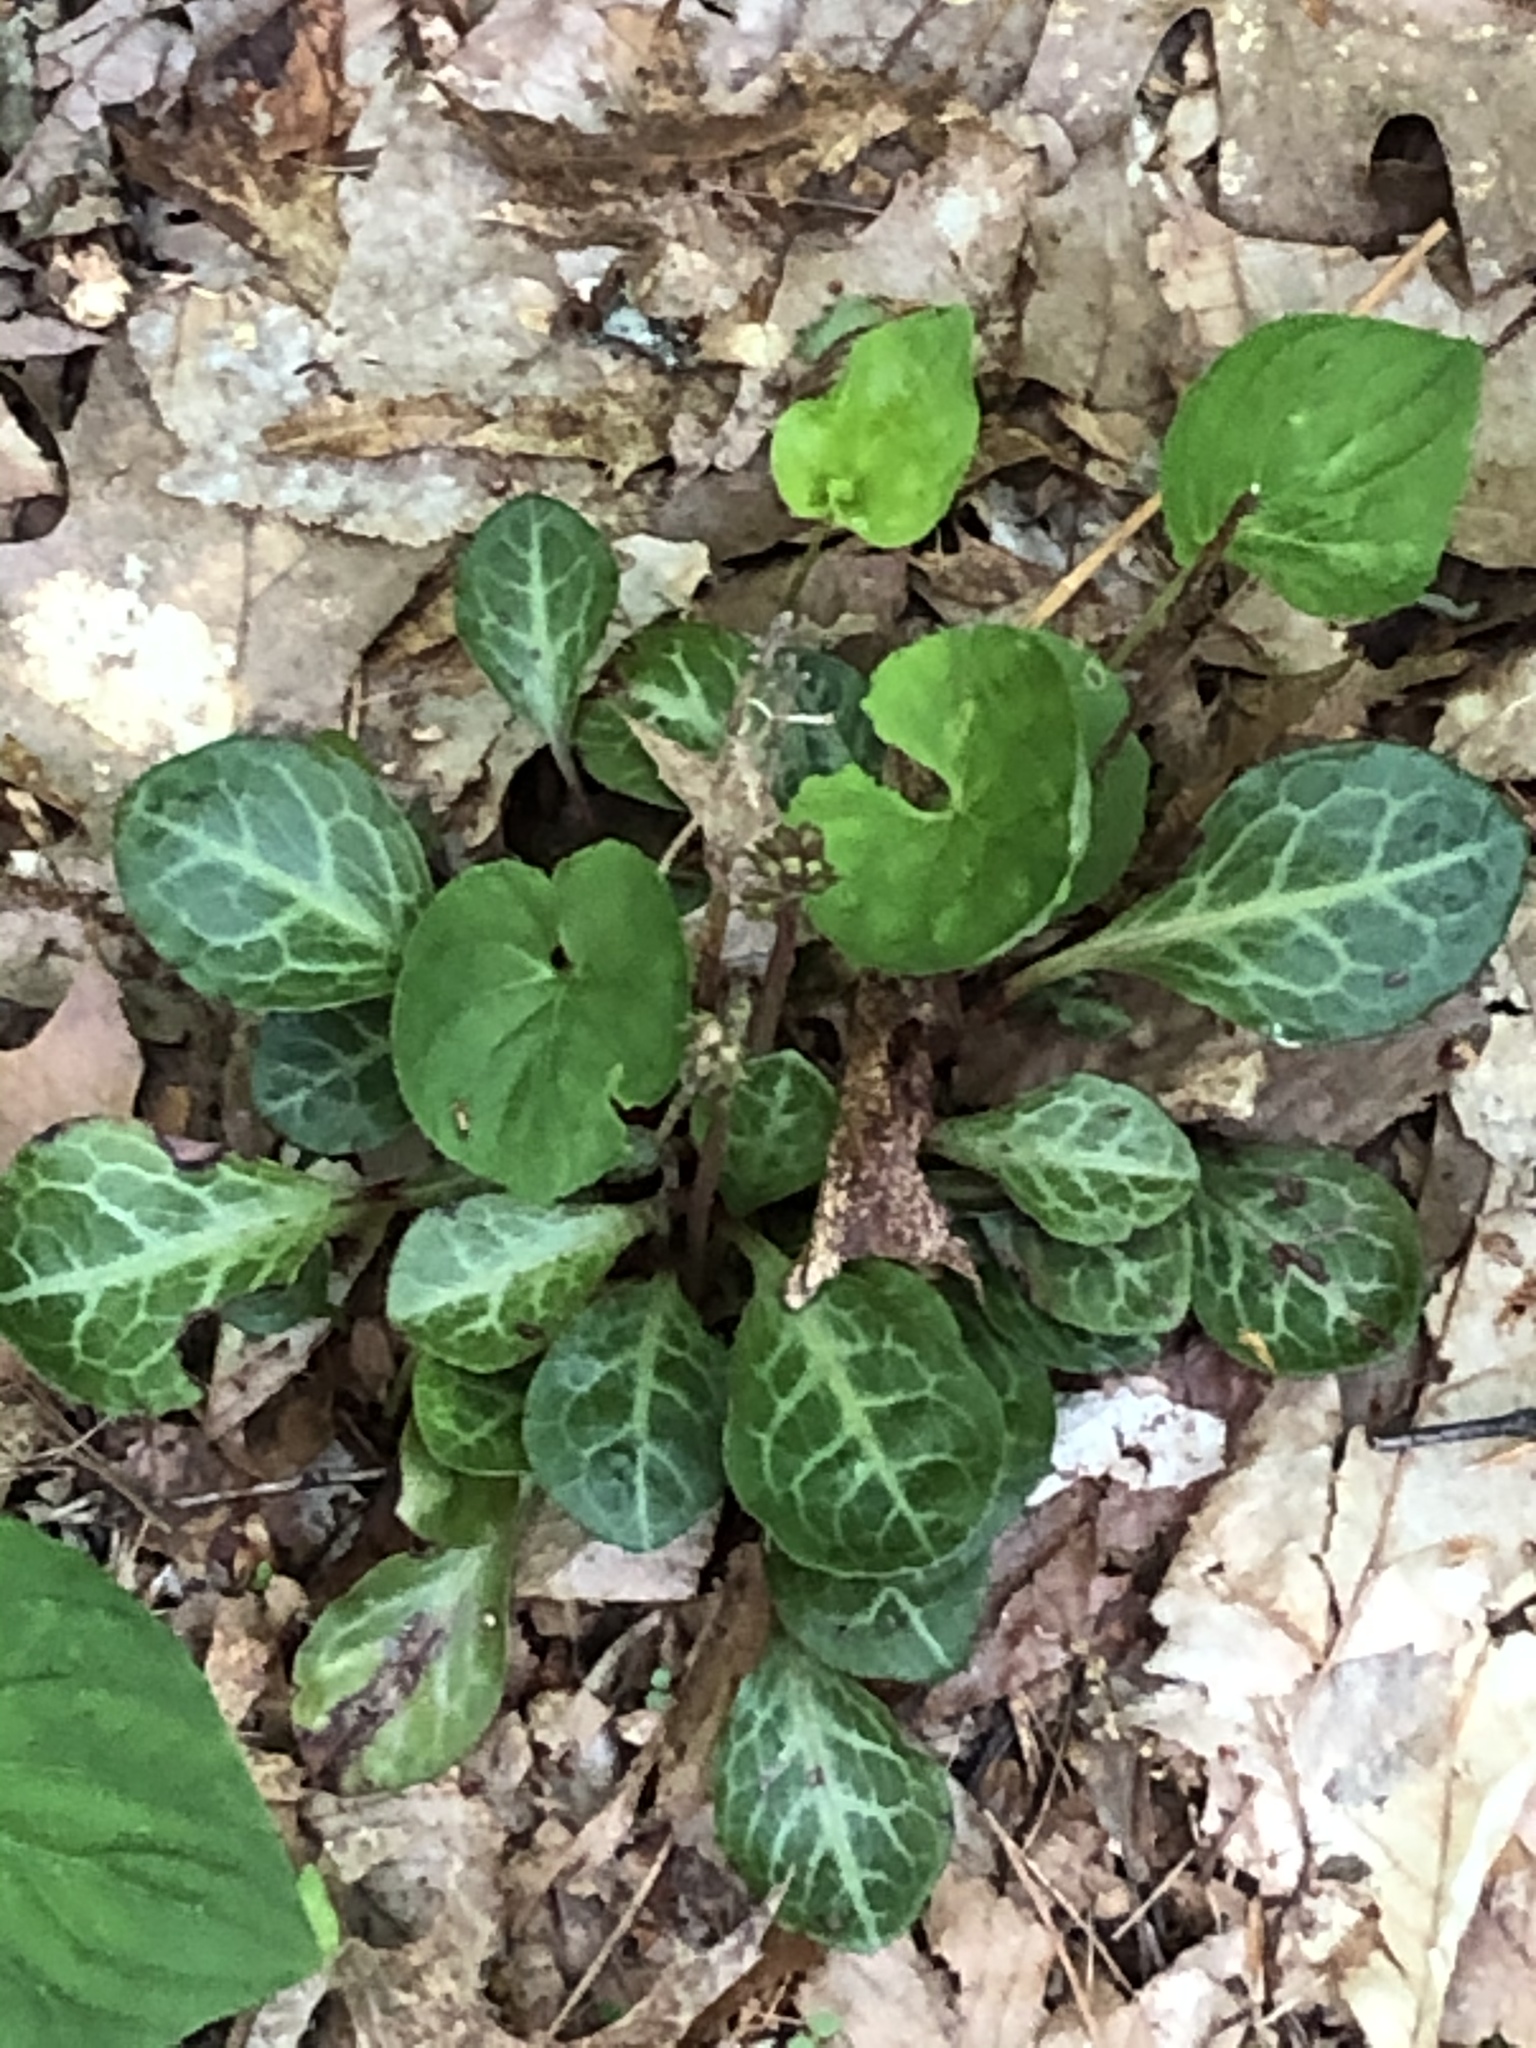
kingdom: Plantae
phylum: Tracheophyta
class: Magnoliopsida
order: Ericales
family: Ericaceae
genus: Pyrola
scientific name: Pyrola americana
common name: American wintergreen
